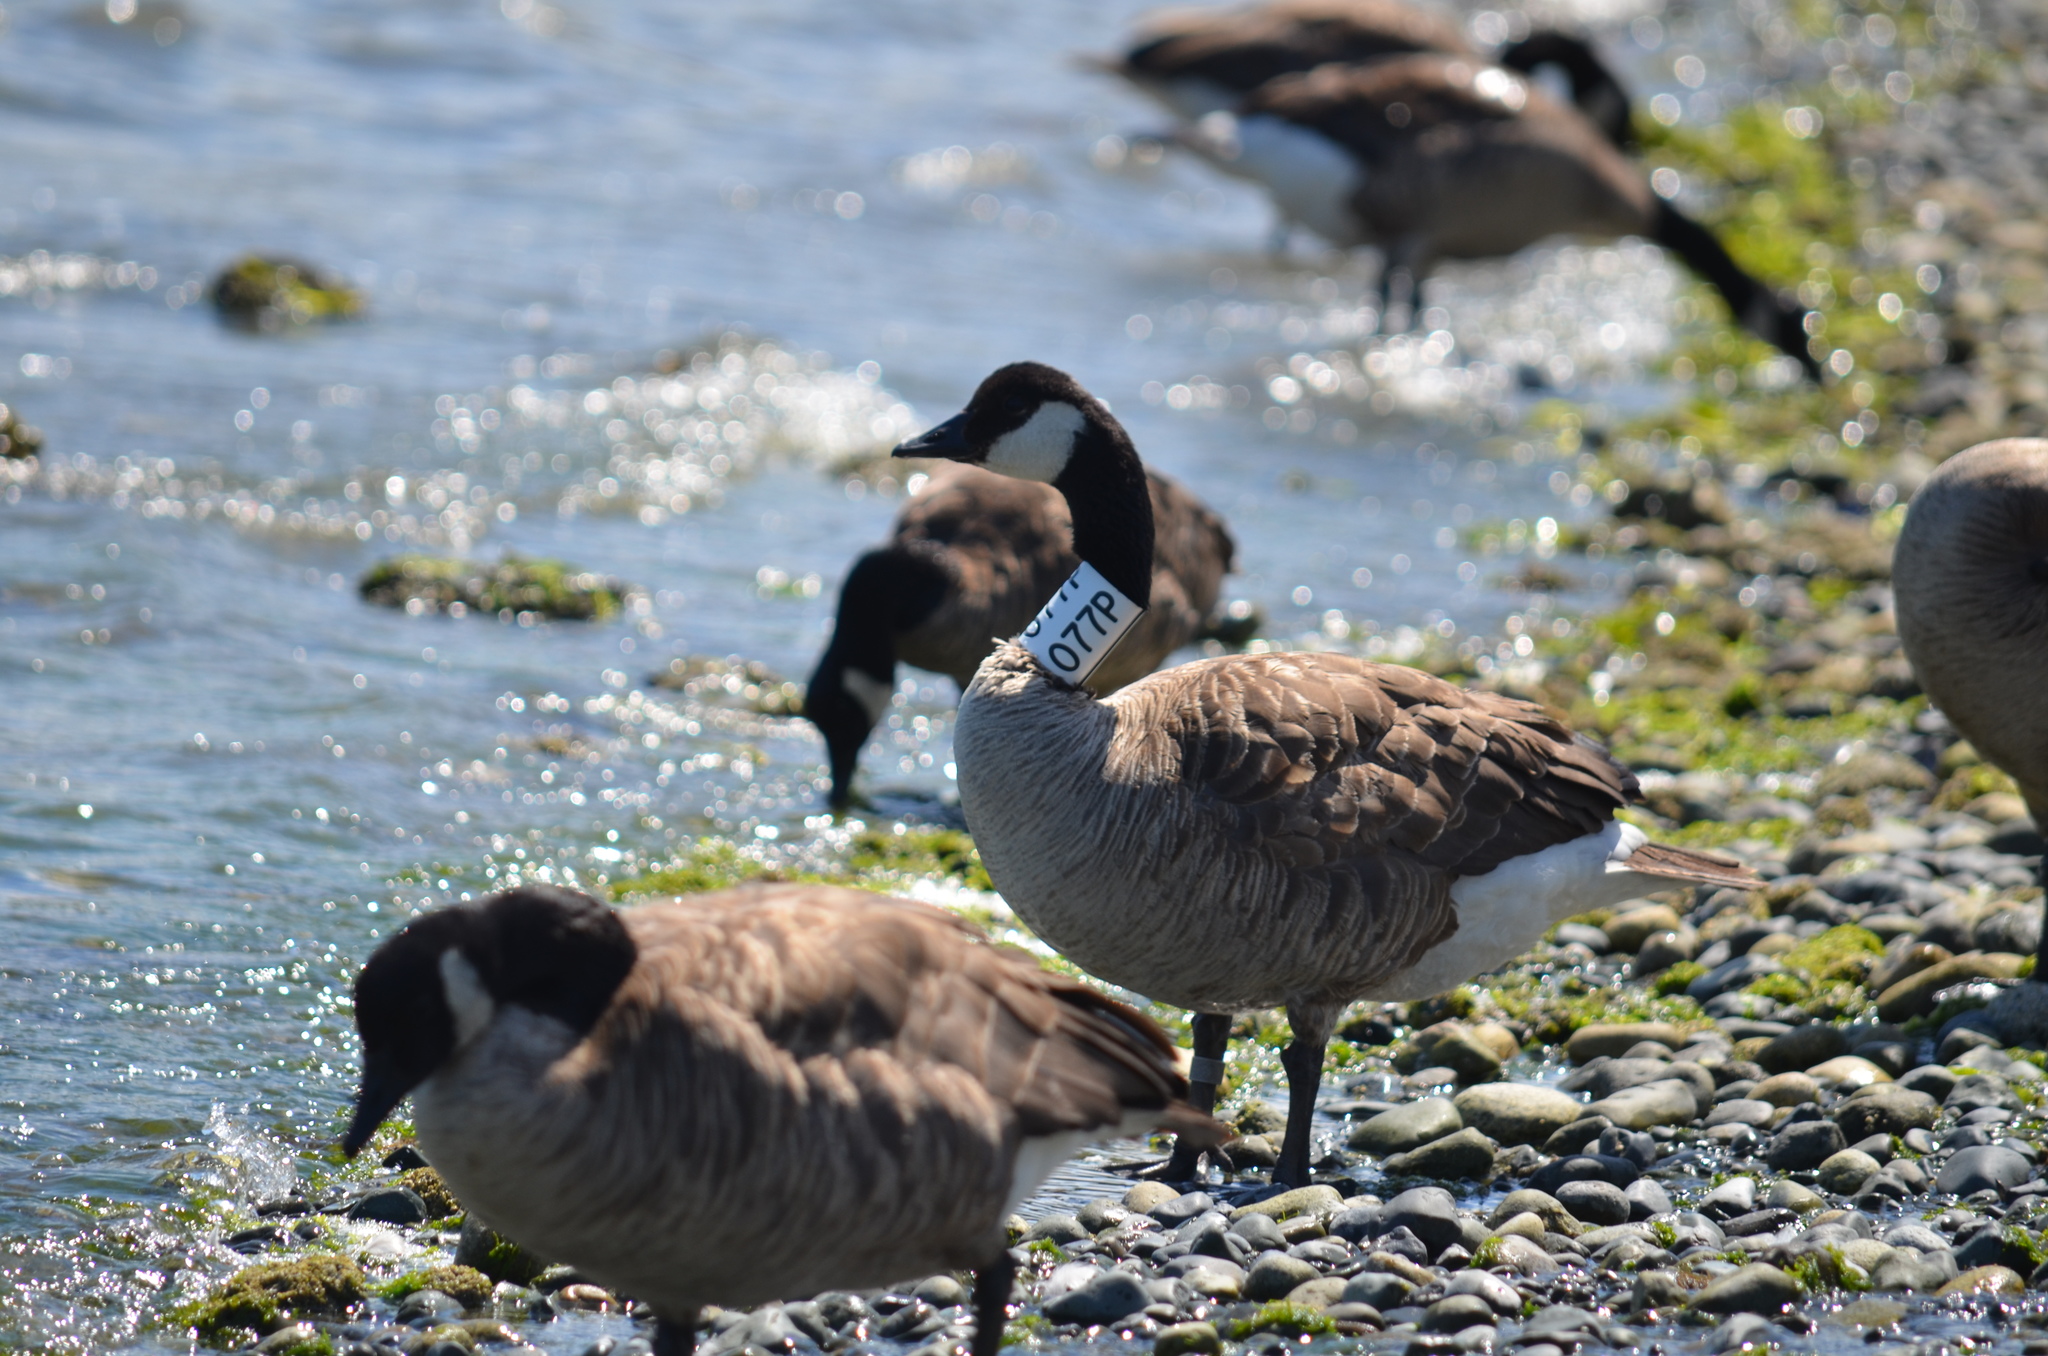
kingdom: Animalia
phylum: Chordata
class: Aves
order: Anseriformes
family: Anatidae
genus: Branta
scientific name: Branta canadensis
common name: Canada goose
